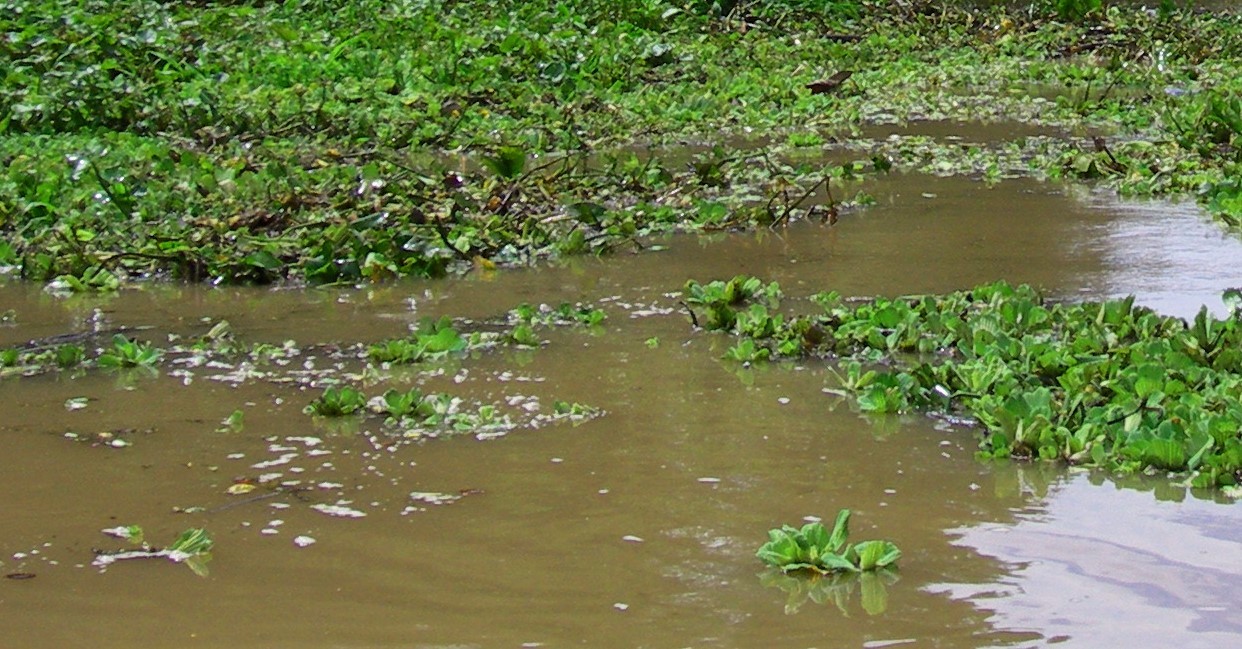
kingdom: Plantae
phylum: Tracheophyta
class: Liliopsida
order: Alismatales
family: Araceae
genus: Pistia
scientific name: Pistia stratiotes
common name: Water lettuce
